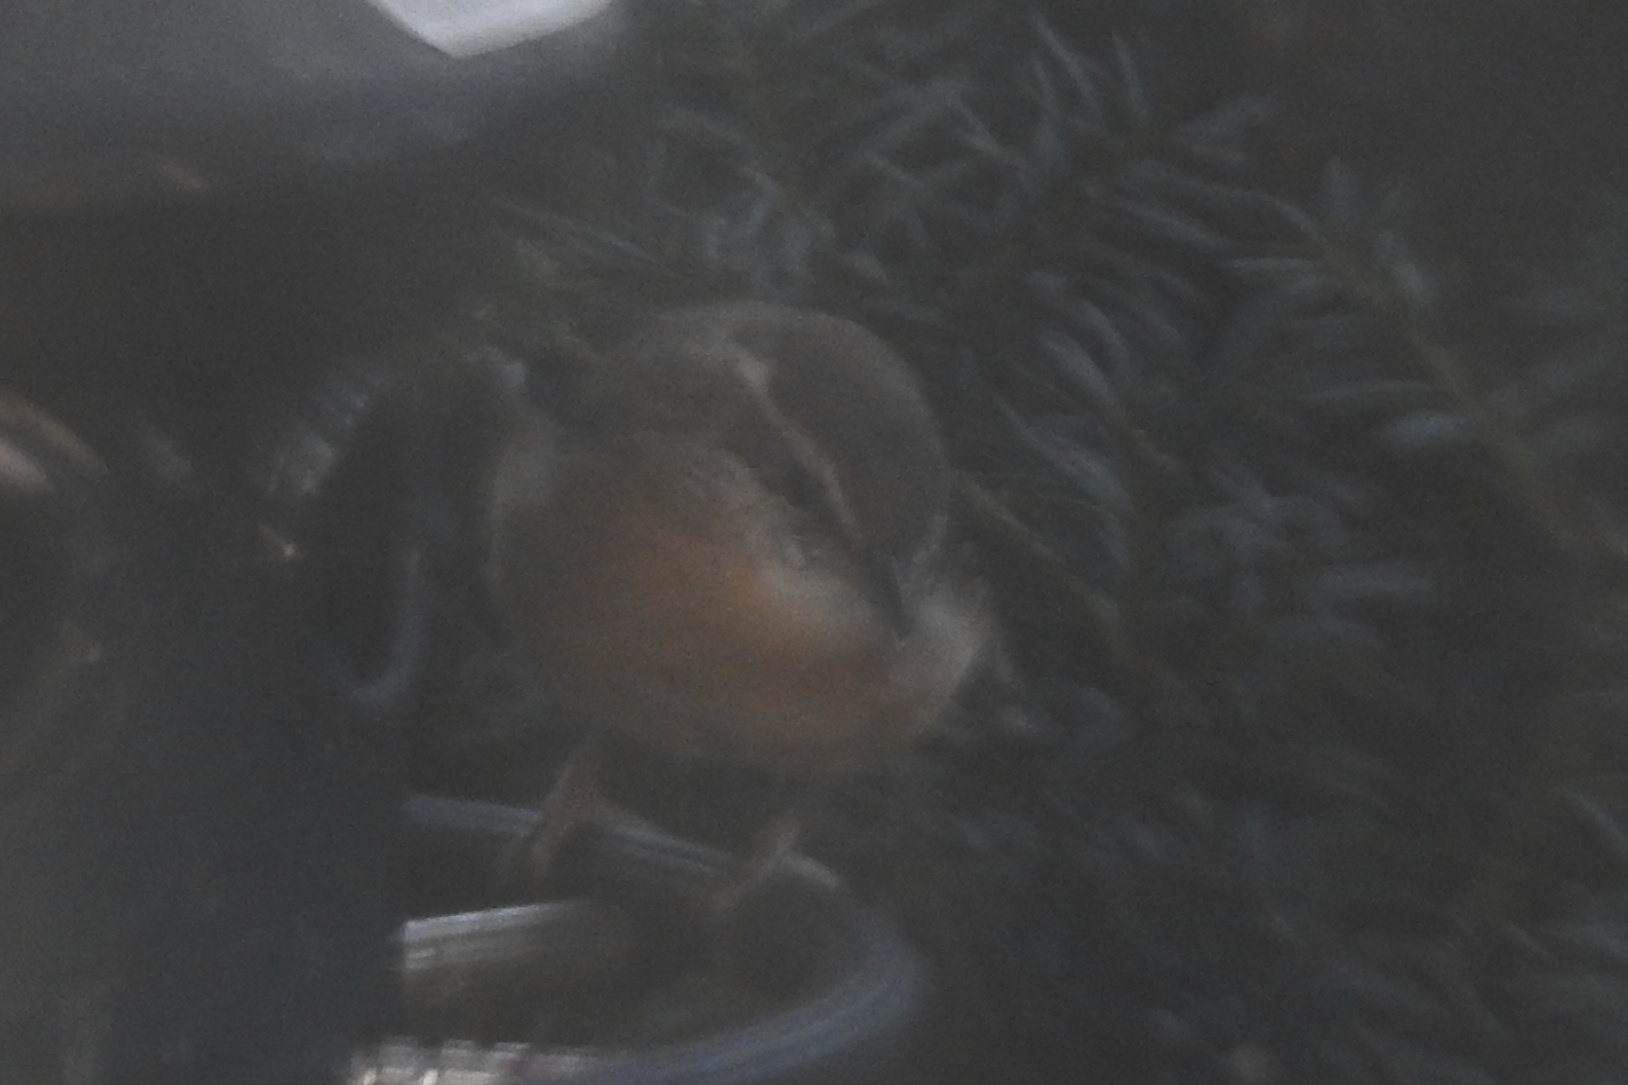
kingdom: Animalia
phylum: Chordata
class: Aves
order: Passeriformes
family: Troglodytidae
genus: Thryothorus
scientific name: Thryothorus ludovicianus
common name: Carolina wren
